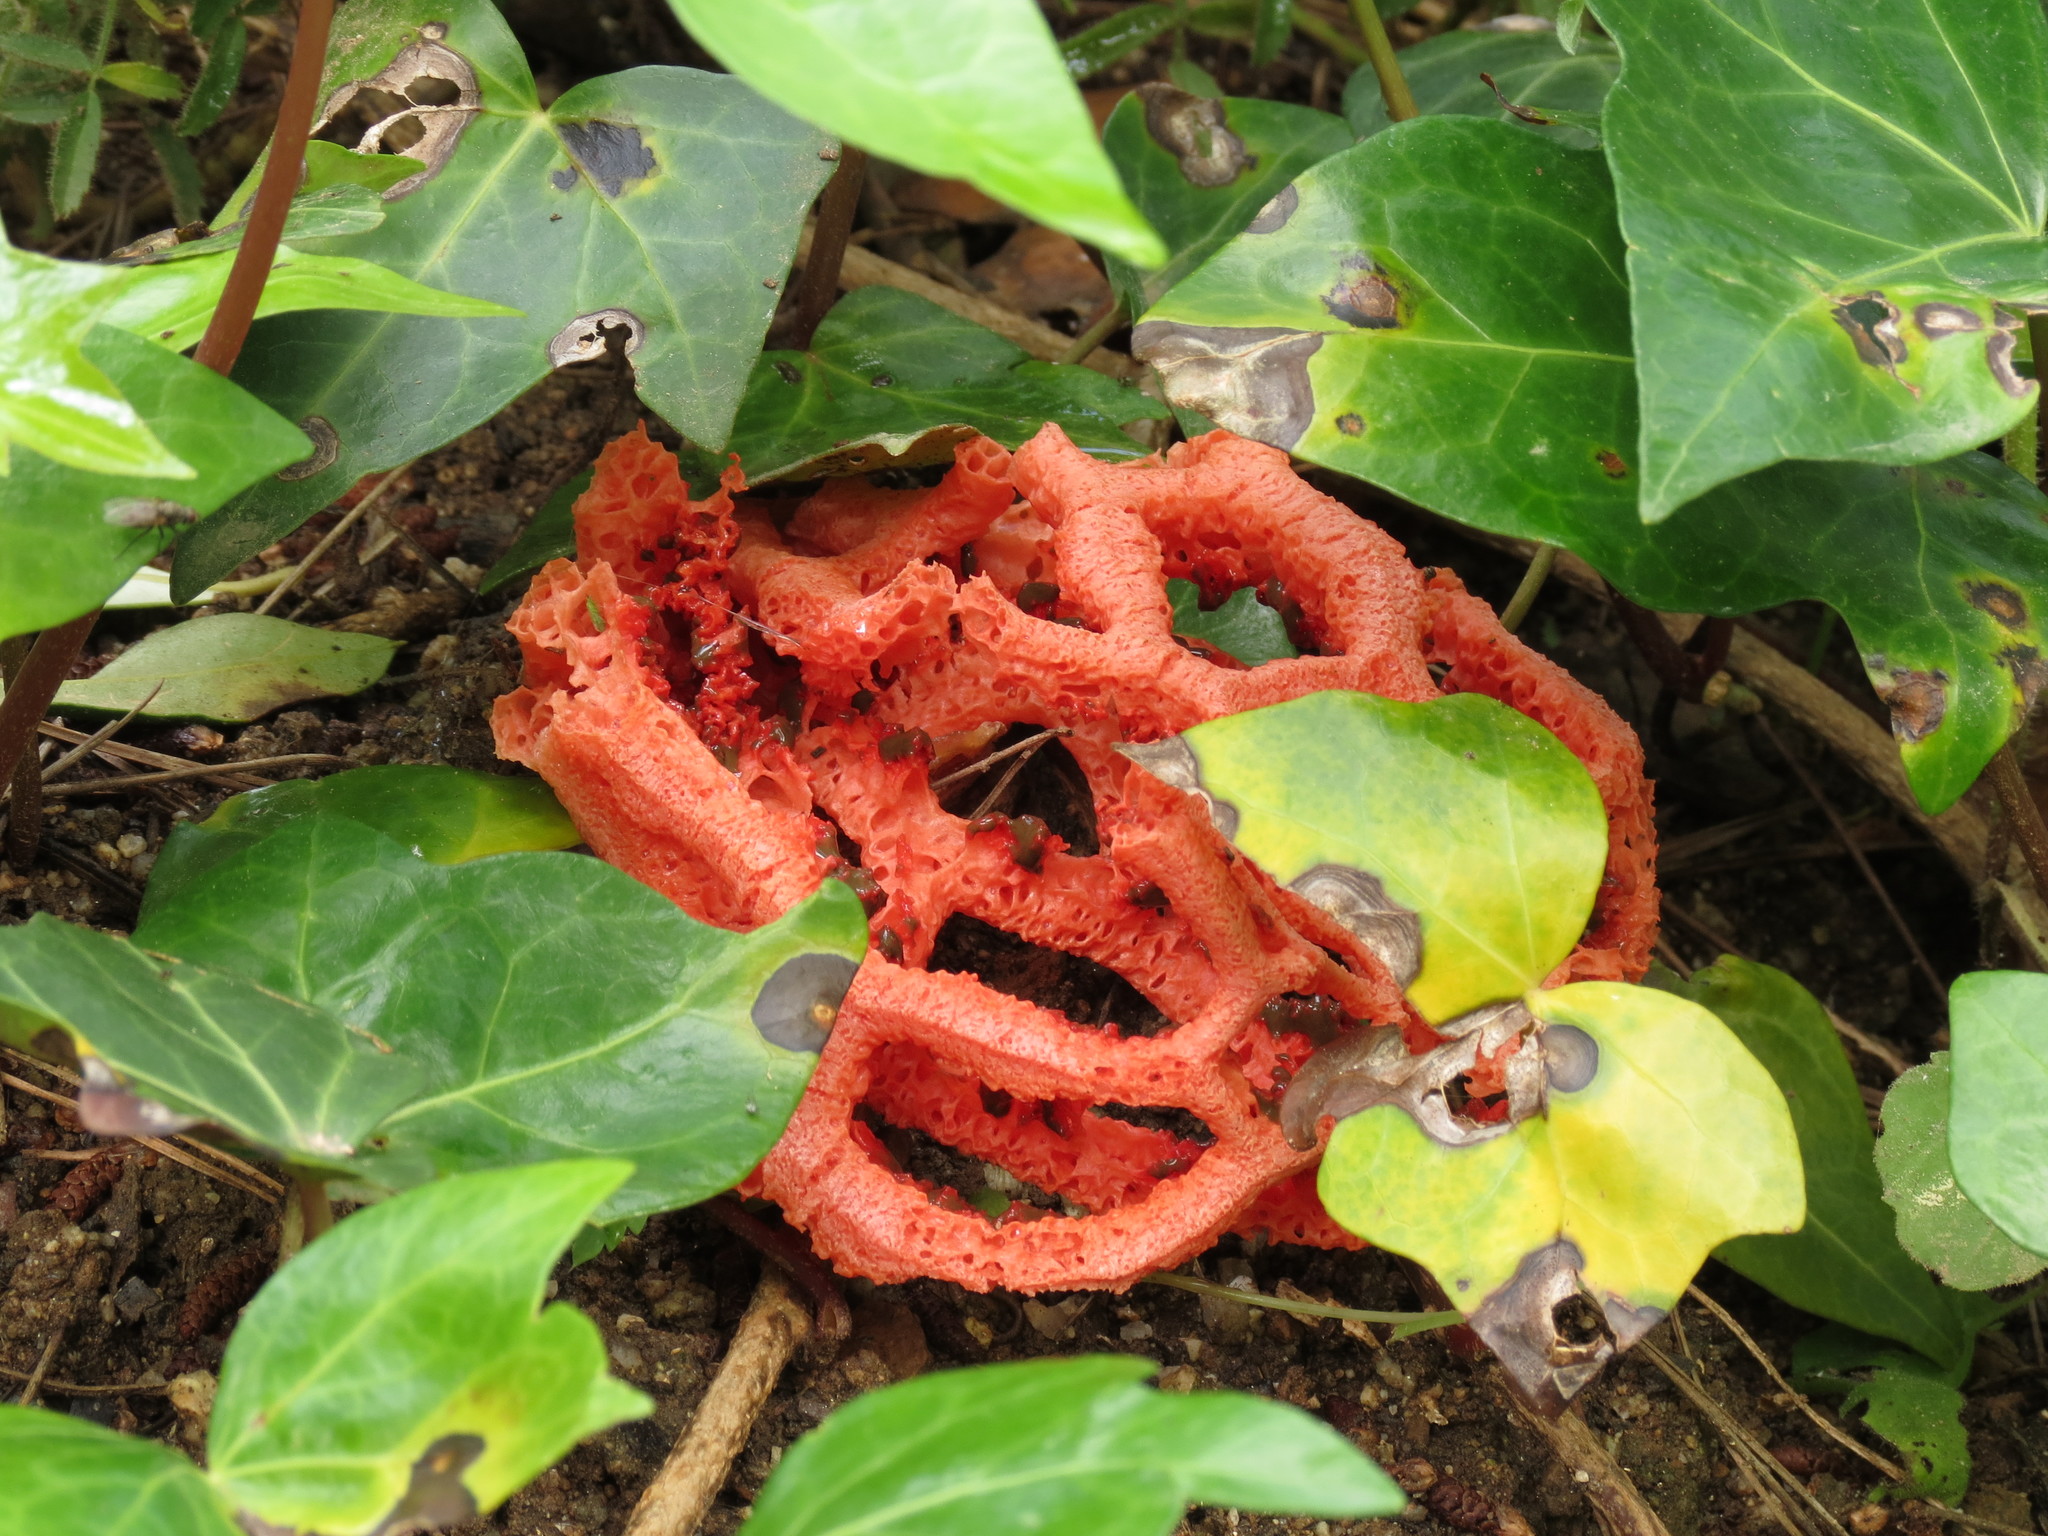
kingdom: Fungi
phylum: Basidiomycota
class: Agaricomycetes
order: Phallales
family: Phallaceae
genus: Clathrus
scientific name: Clathrus ruber
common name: Red cage
